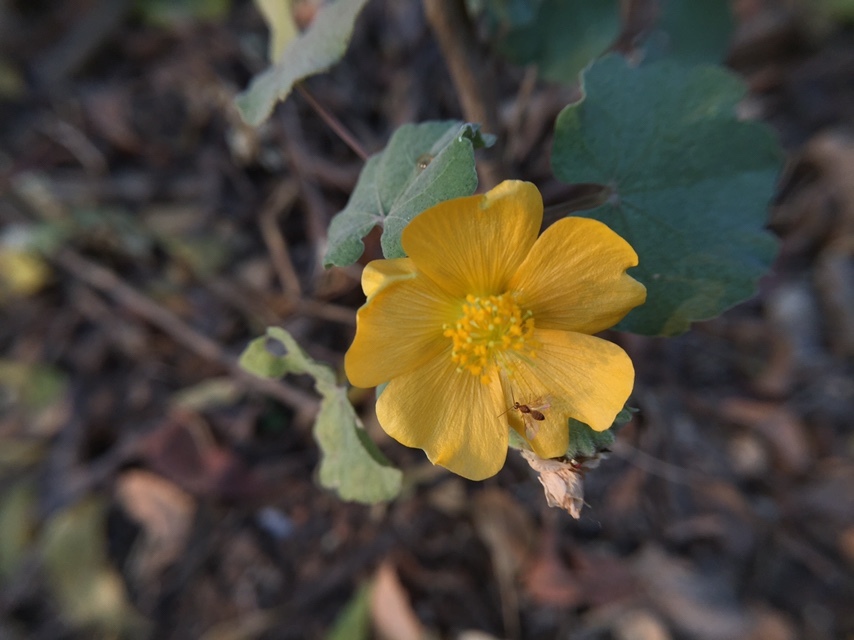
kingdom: Plantae
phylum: Tracheophyta
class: Magnoliopsida
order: Malvales
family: Malvaceae
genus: Abutilon
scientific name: Abutilon indicum
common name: Indian abutilon
